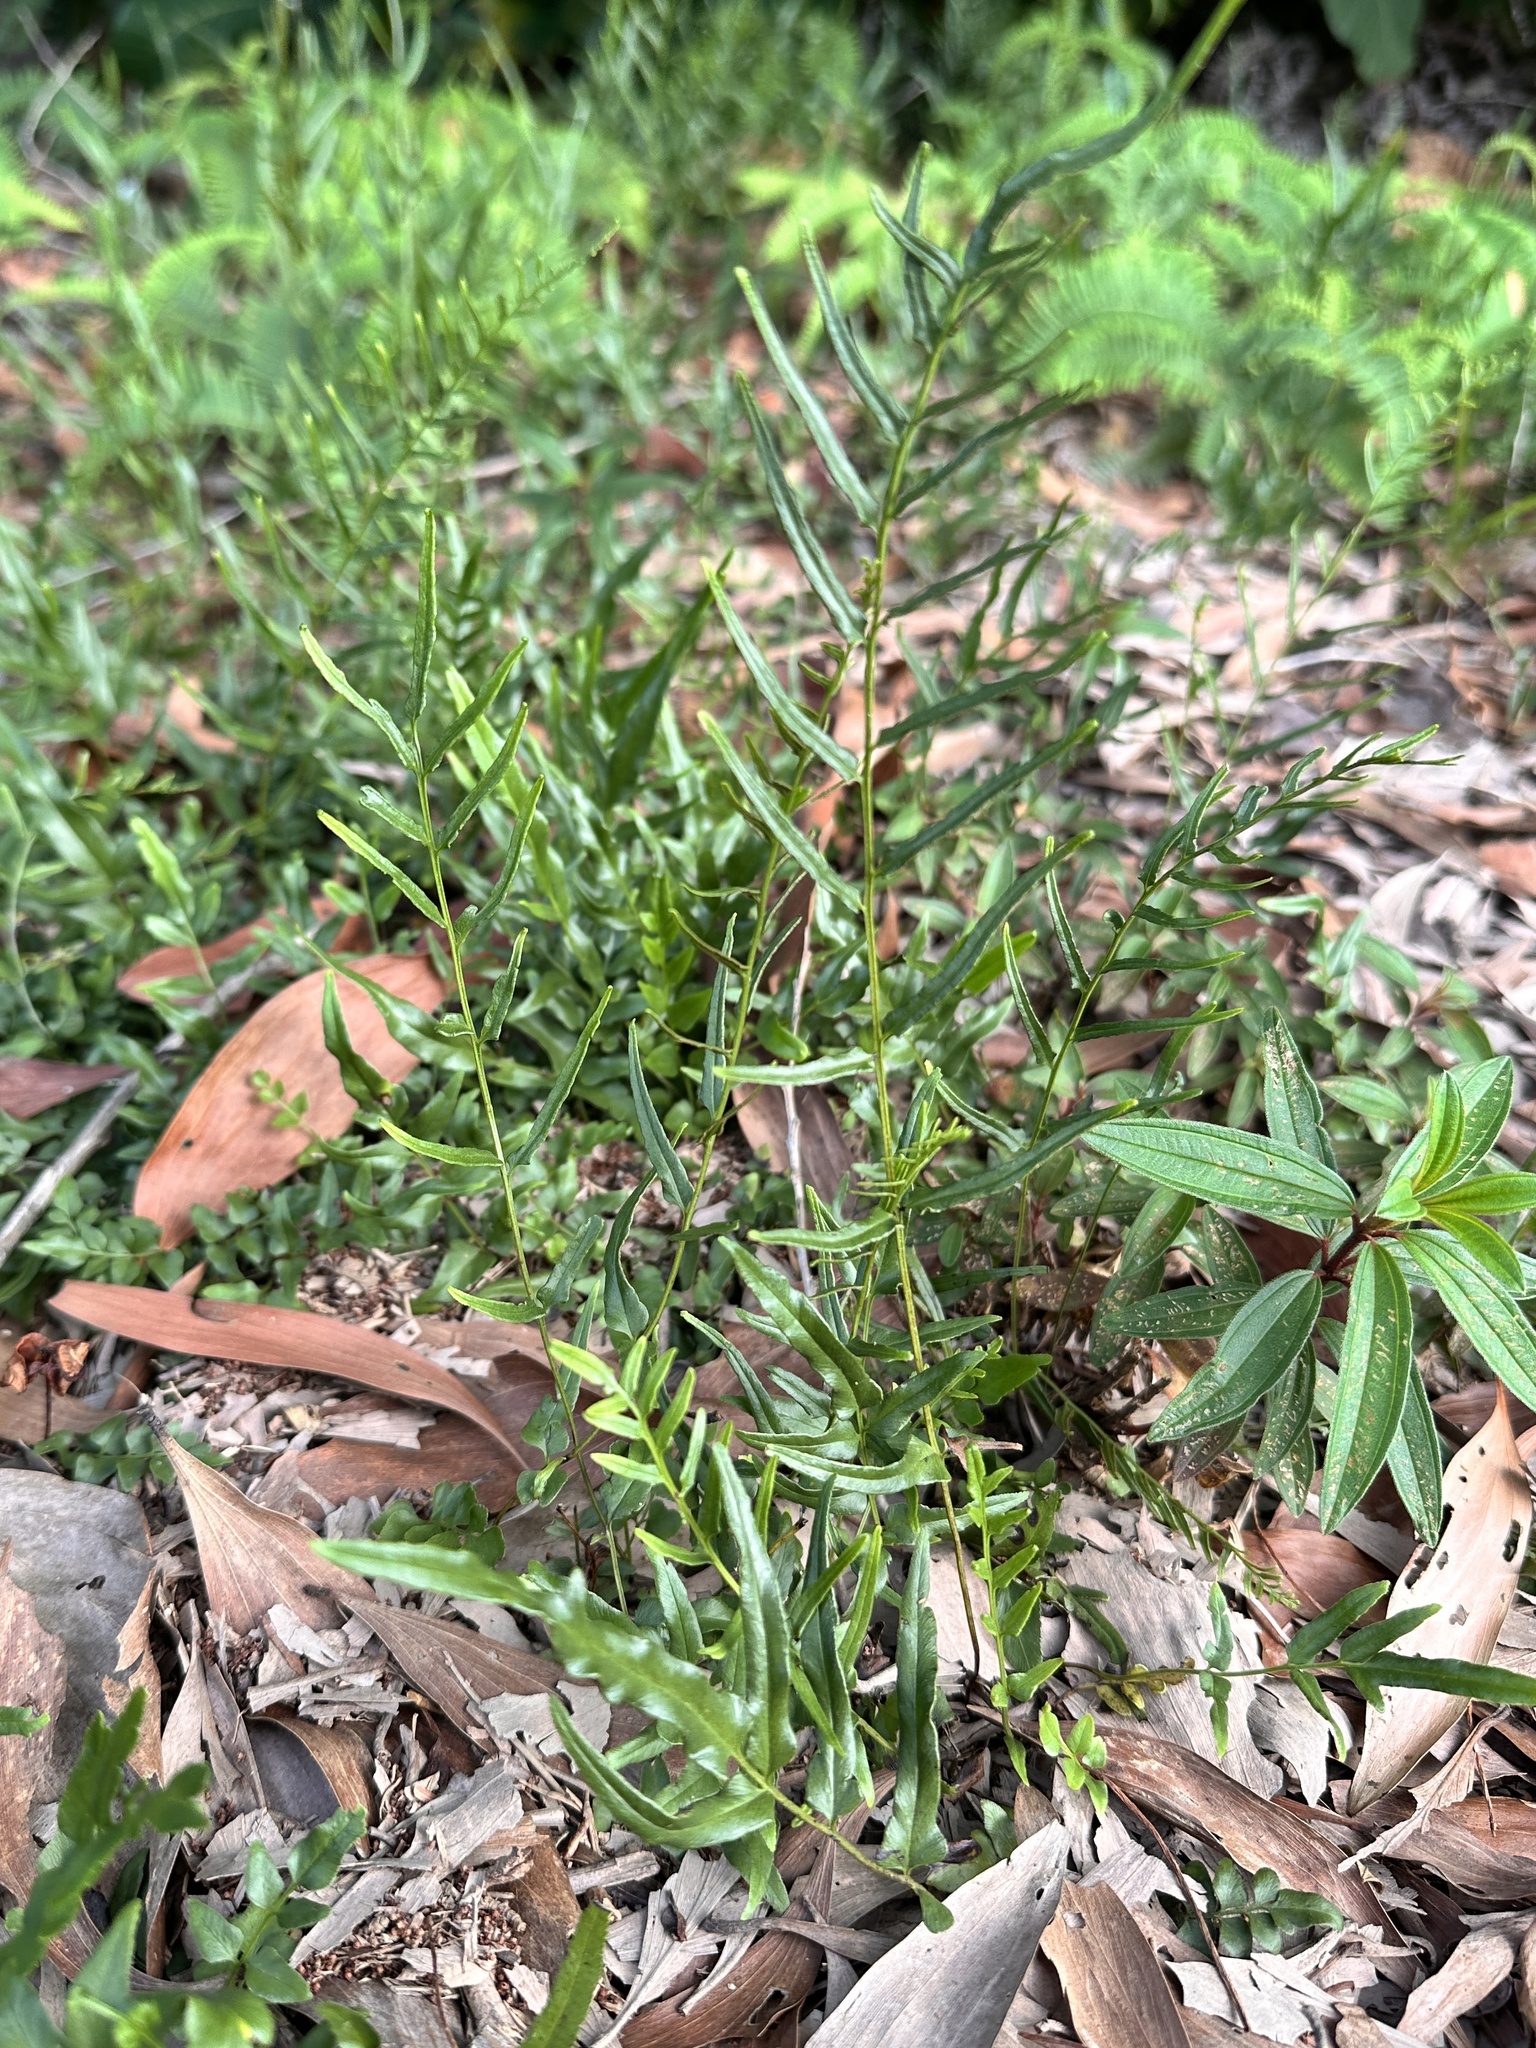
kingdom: Plantae
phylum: Tracheophyta
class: Polypodiopsida
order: Polypodiales
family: Lindsaeaceae
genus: Lindsaea
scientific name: Lindsaea ensifolia
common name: Graceful necklace fern
